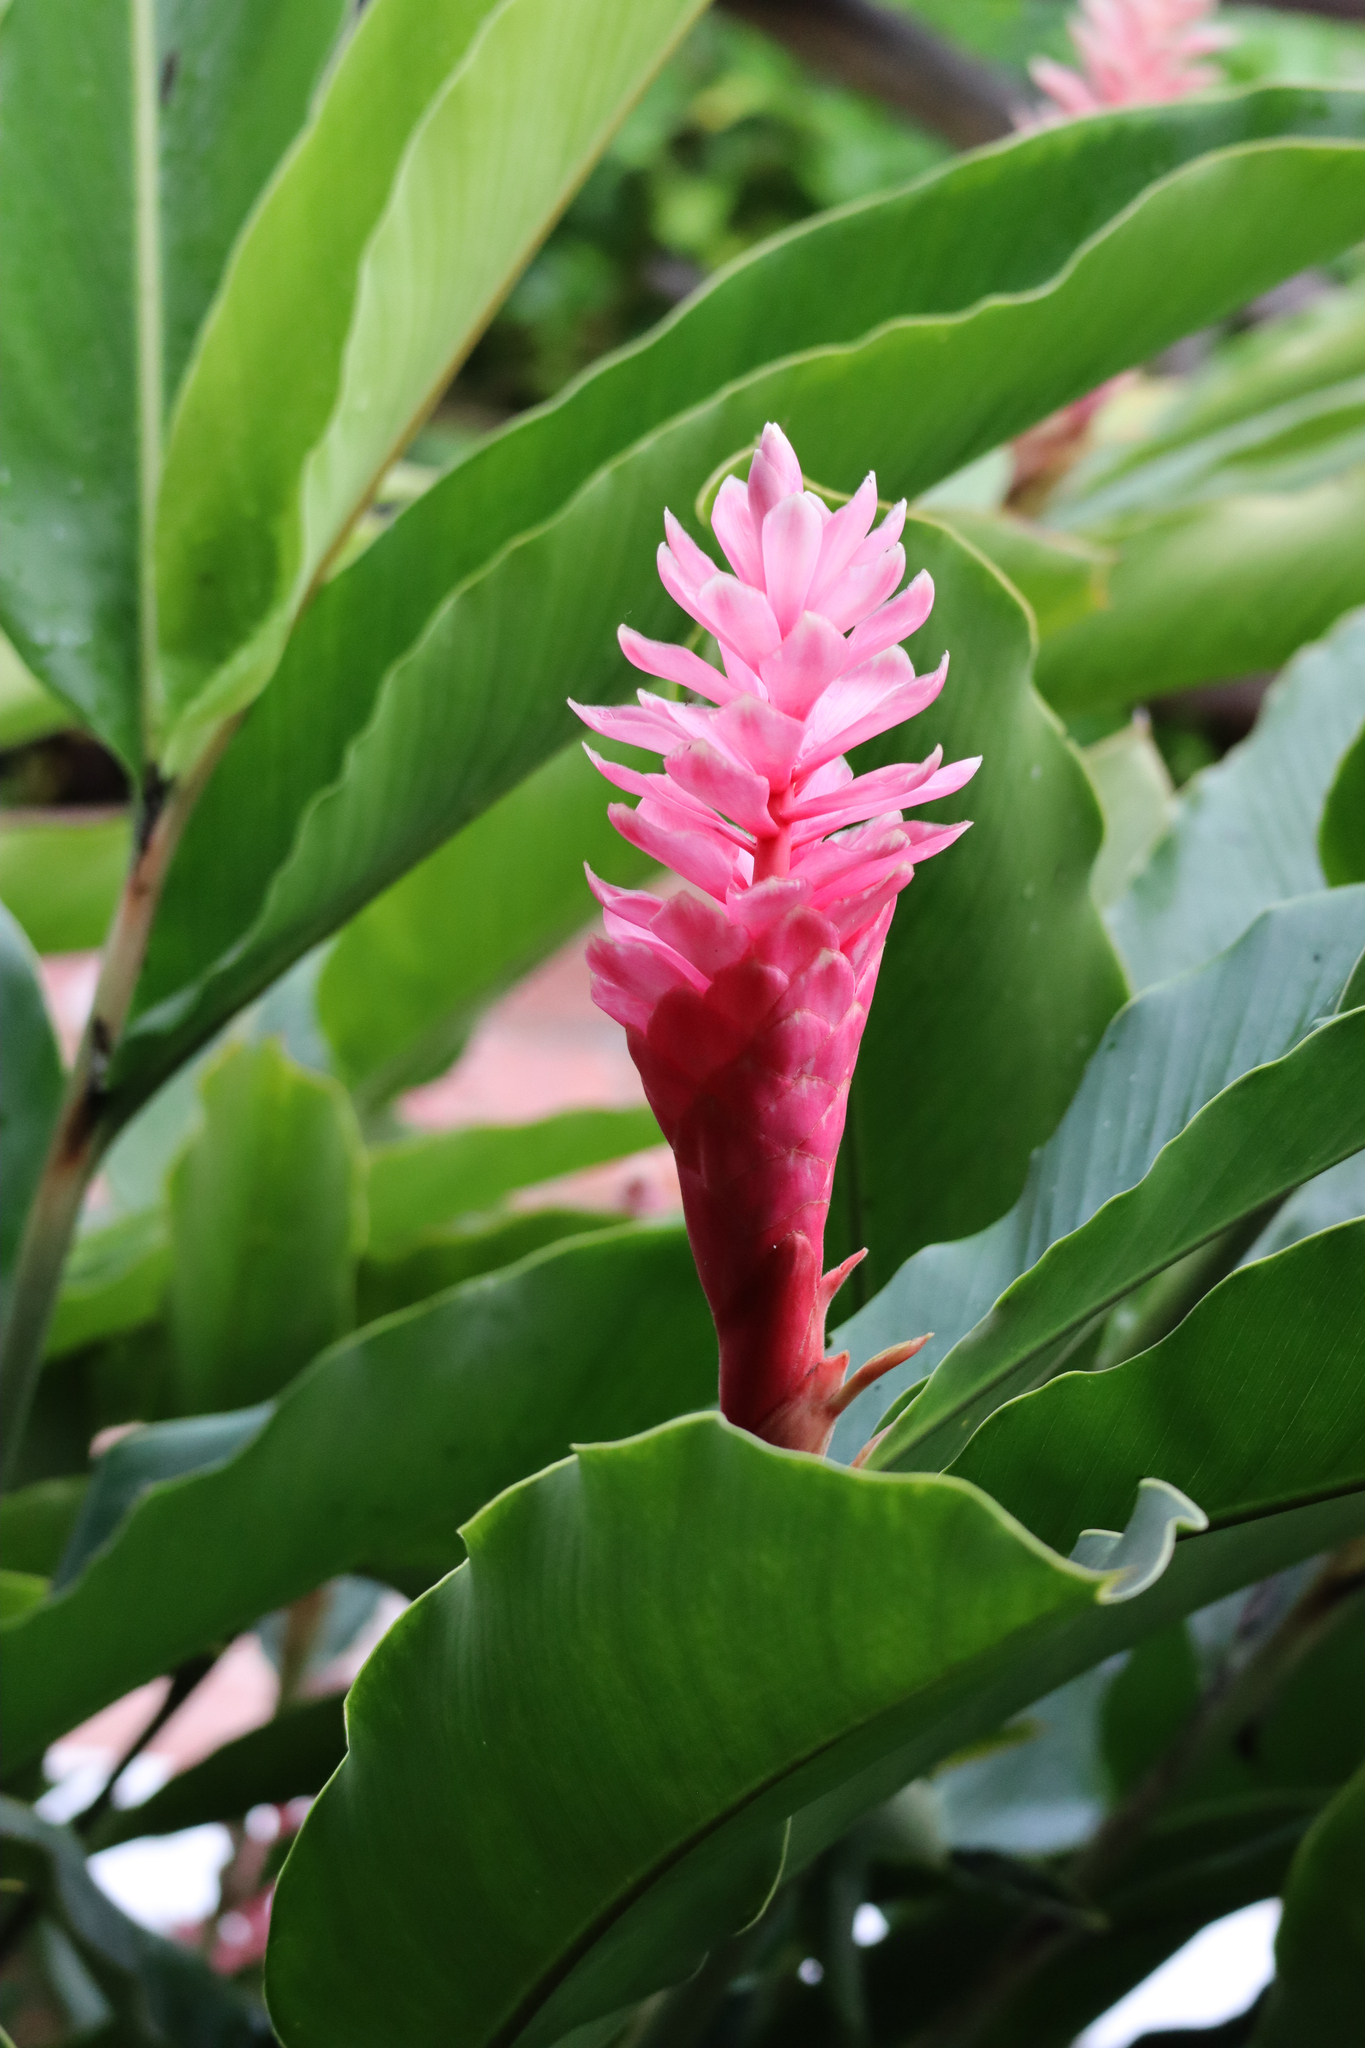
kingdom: Plantae
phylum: Tracheophyta
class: Liliopsida
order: Zingiberales
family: Zingiberaceae
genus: Alpinia
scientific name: Alpinia purpurata
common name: Red ginger
